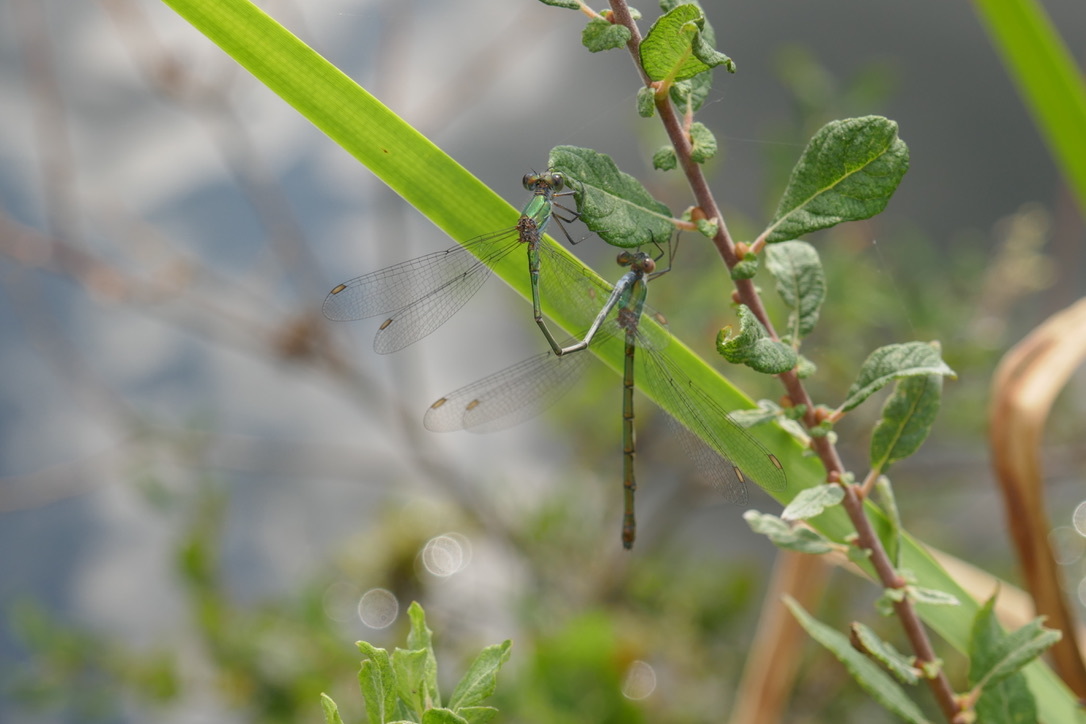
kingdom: Animalia
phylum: Arthropoda
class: Insecta
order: Odonata
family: Lestidae
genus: Chalcolestes
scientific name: Chalcolestes viridis
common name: Green emerald damselfly
